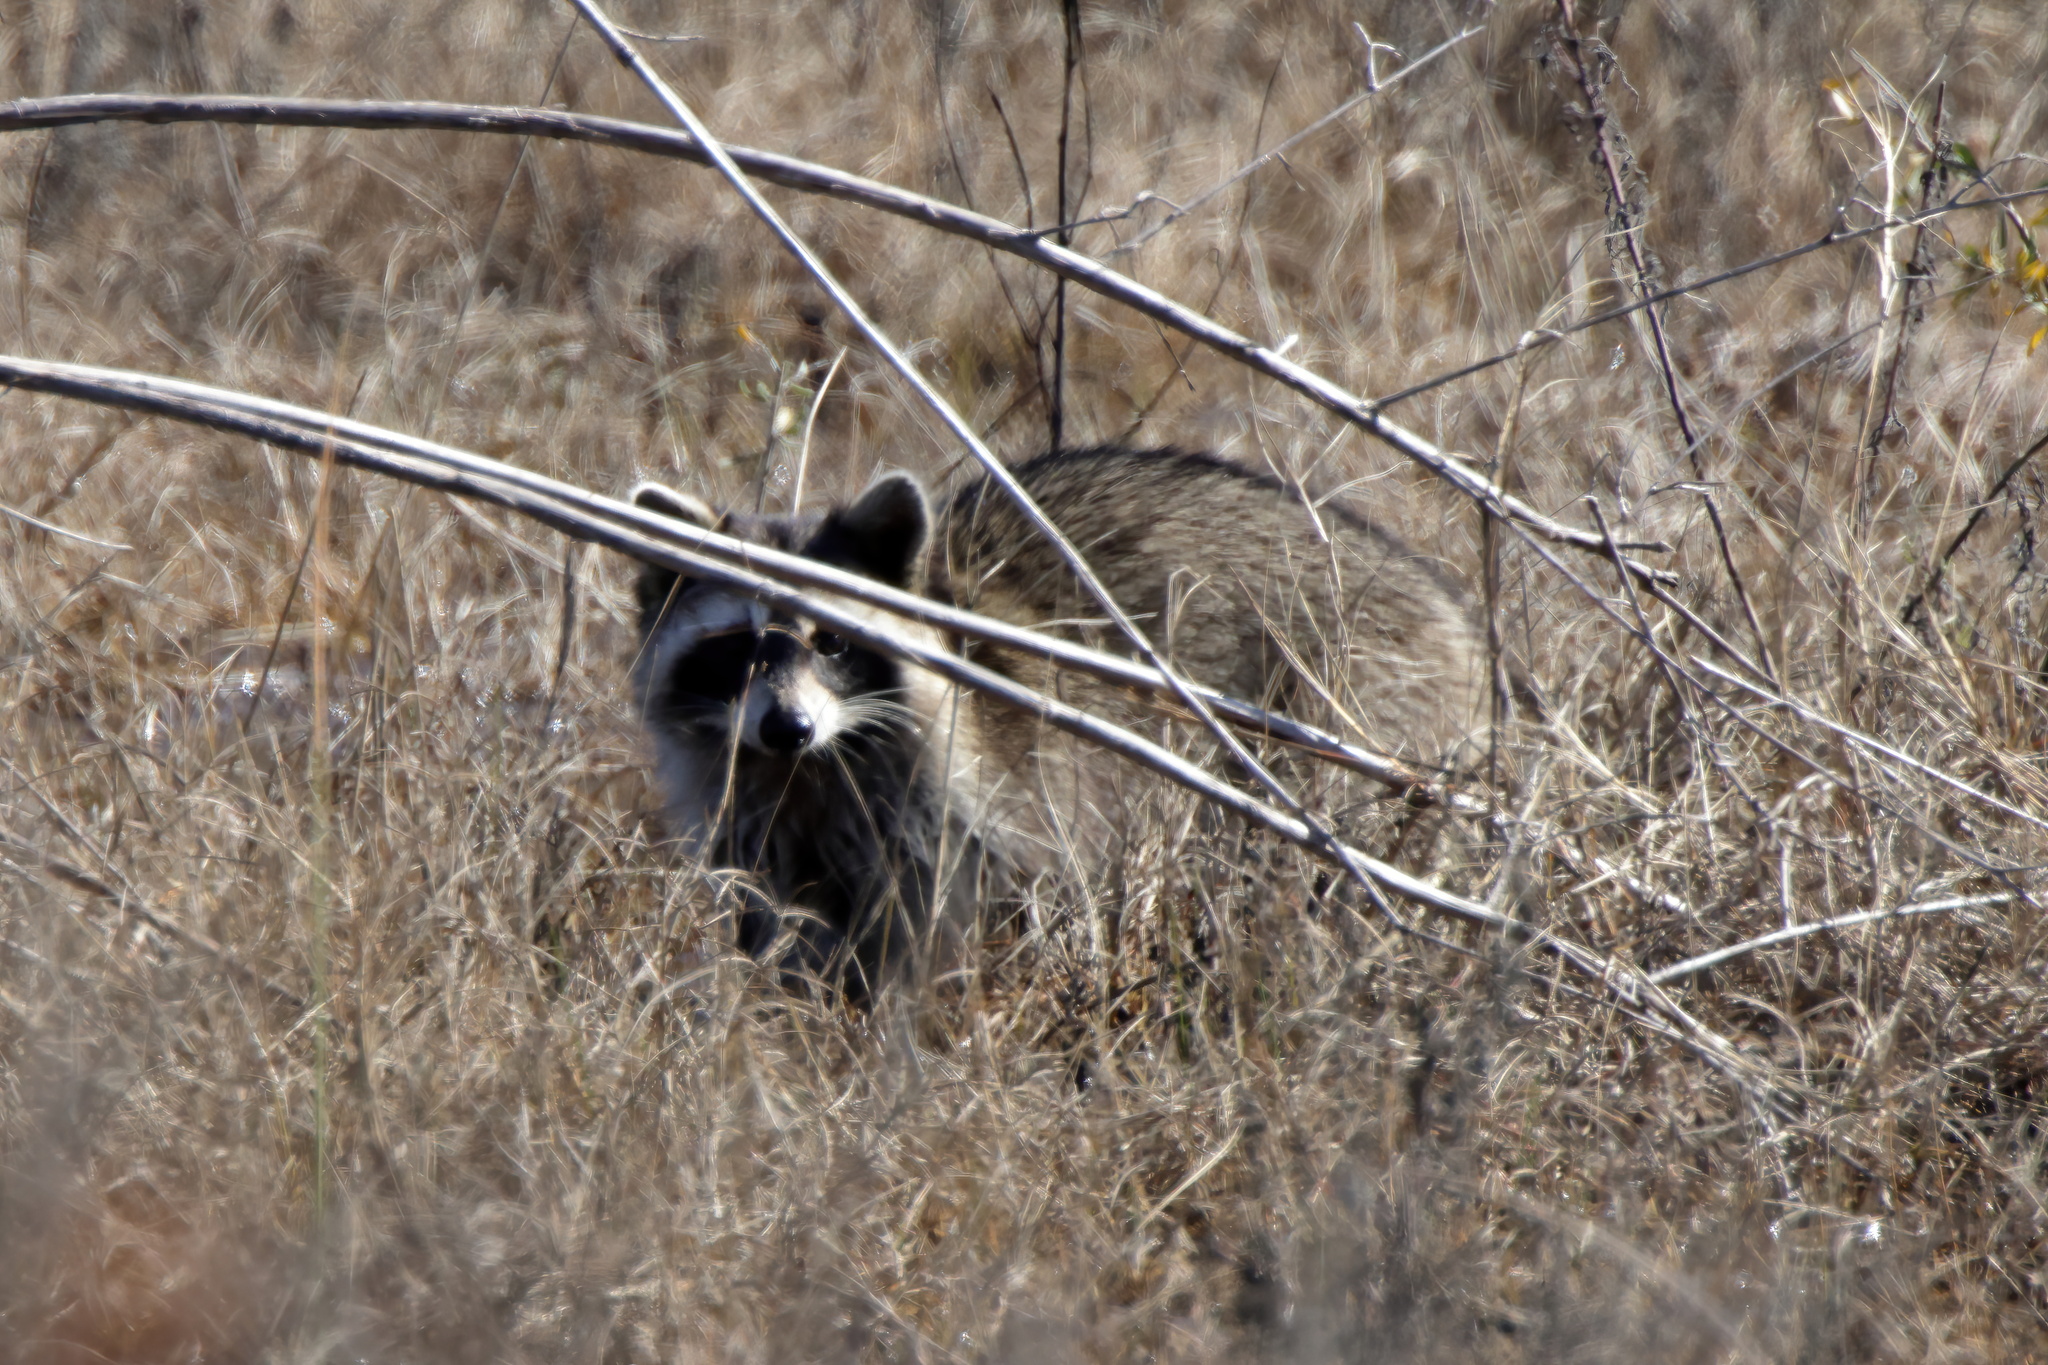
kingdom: Animalia
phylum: Chordata
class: Mammalia
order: Carnivora
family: Procyonidae
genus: Procyon
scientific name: Procyon lotor
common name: Raccoon
